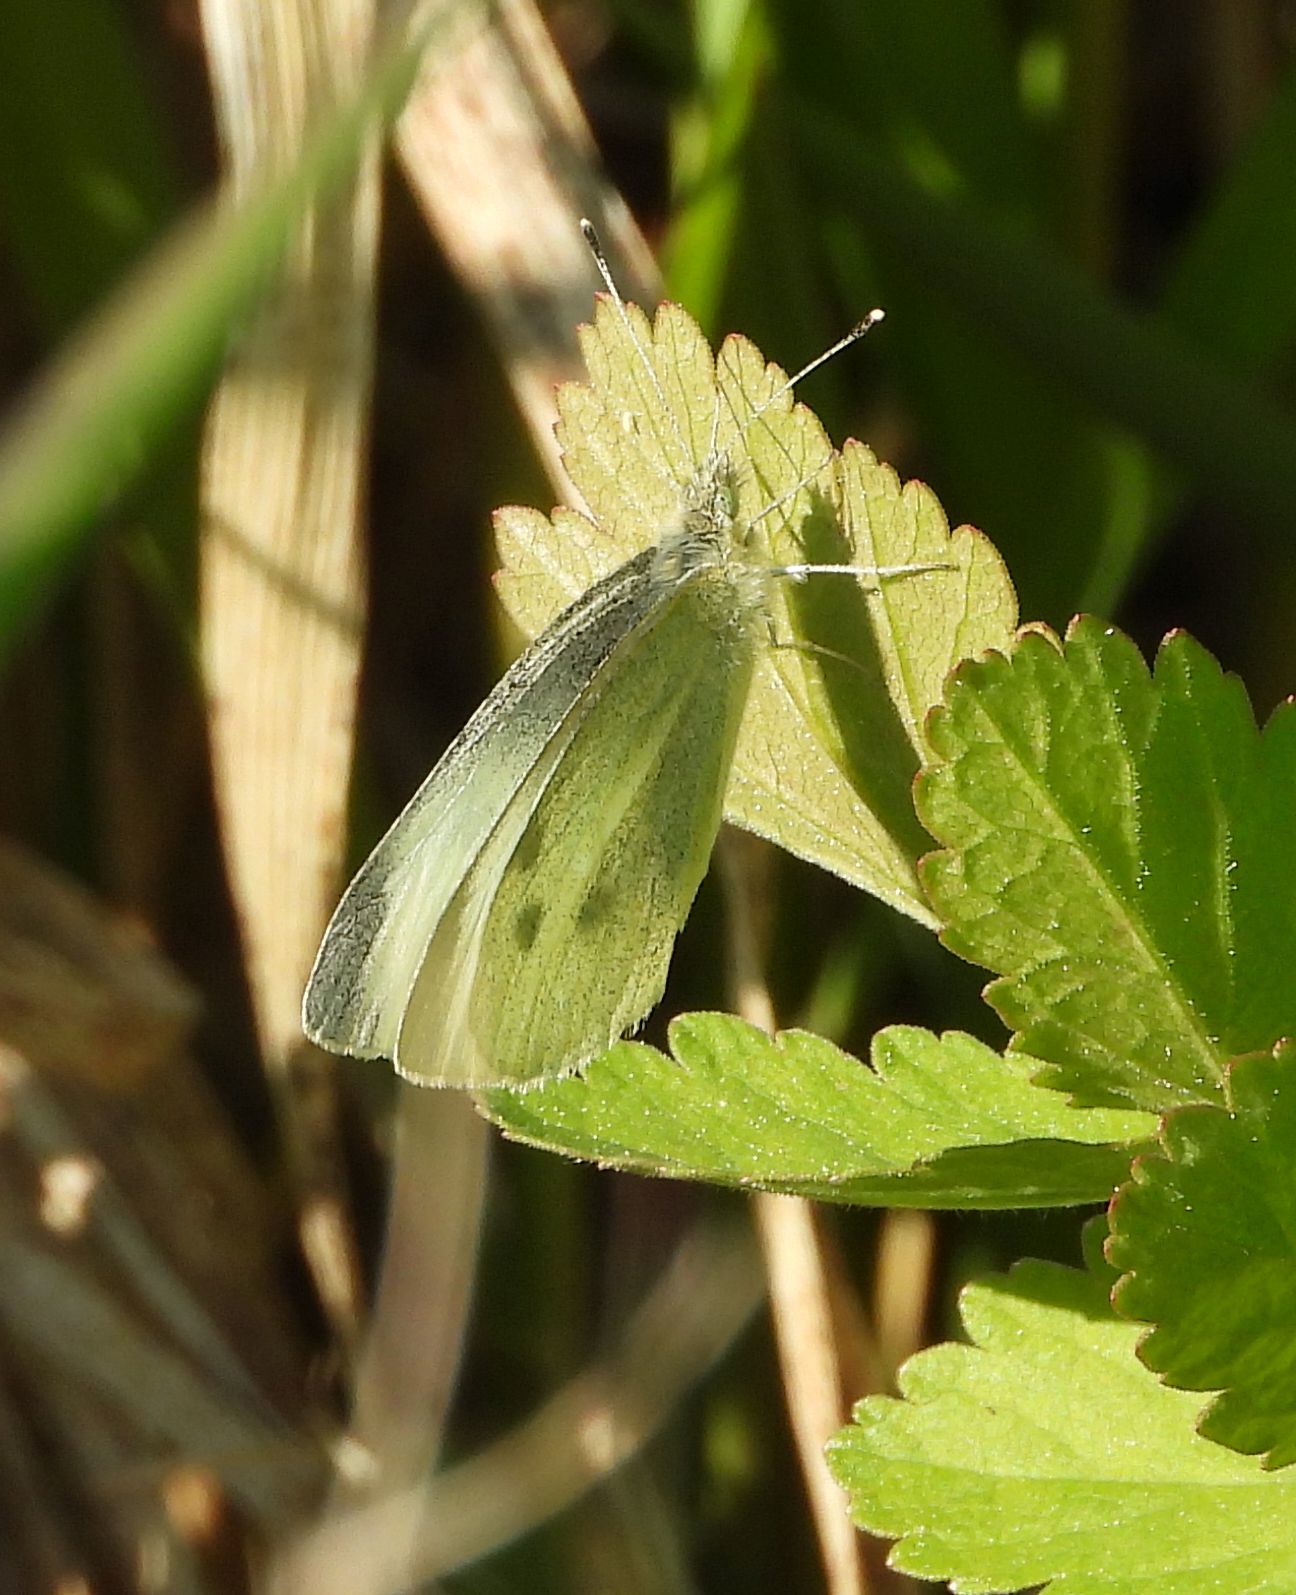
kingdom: Animalia
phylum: Arthropoda
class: Insecta
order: Lepidoptera
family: Pieridae
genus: Pieris
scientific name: Pieris rapae
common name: Small white
